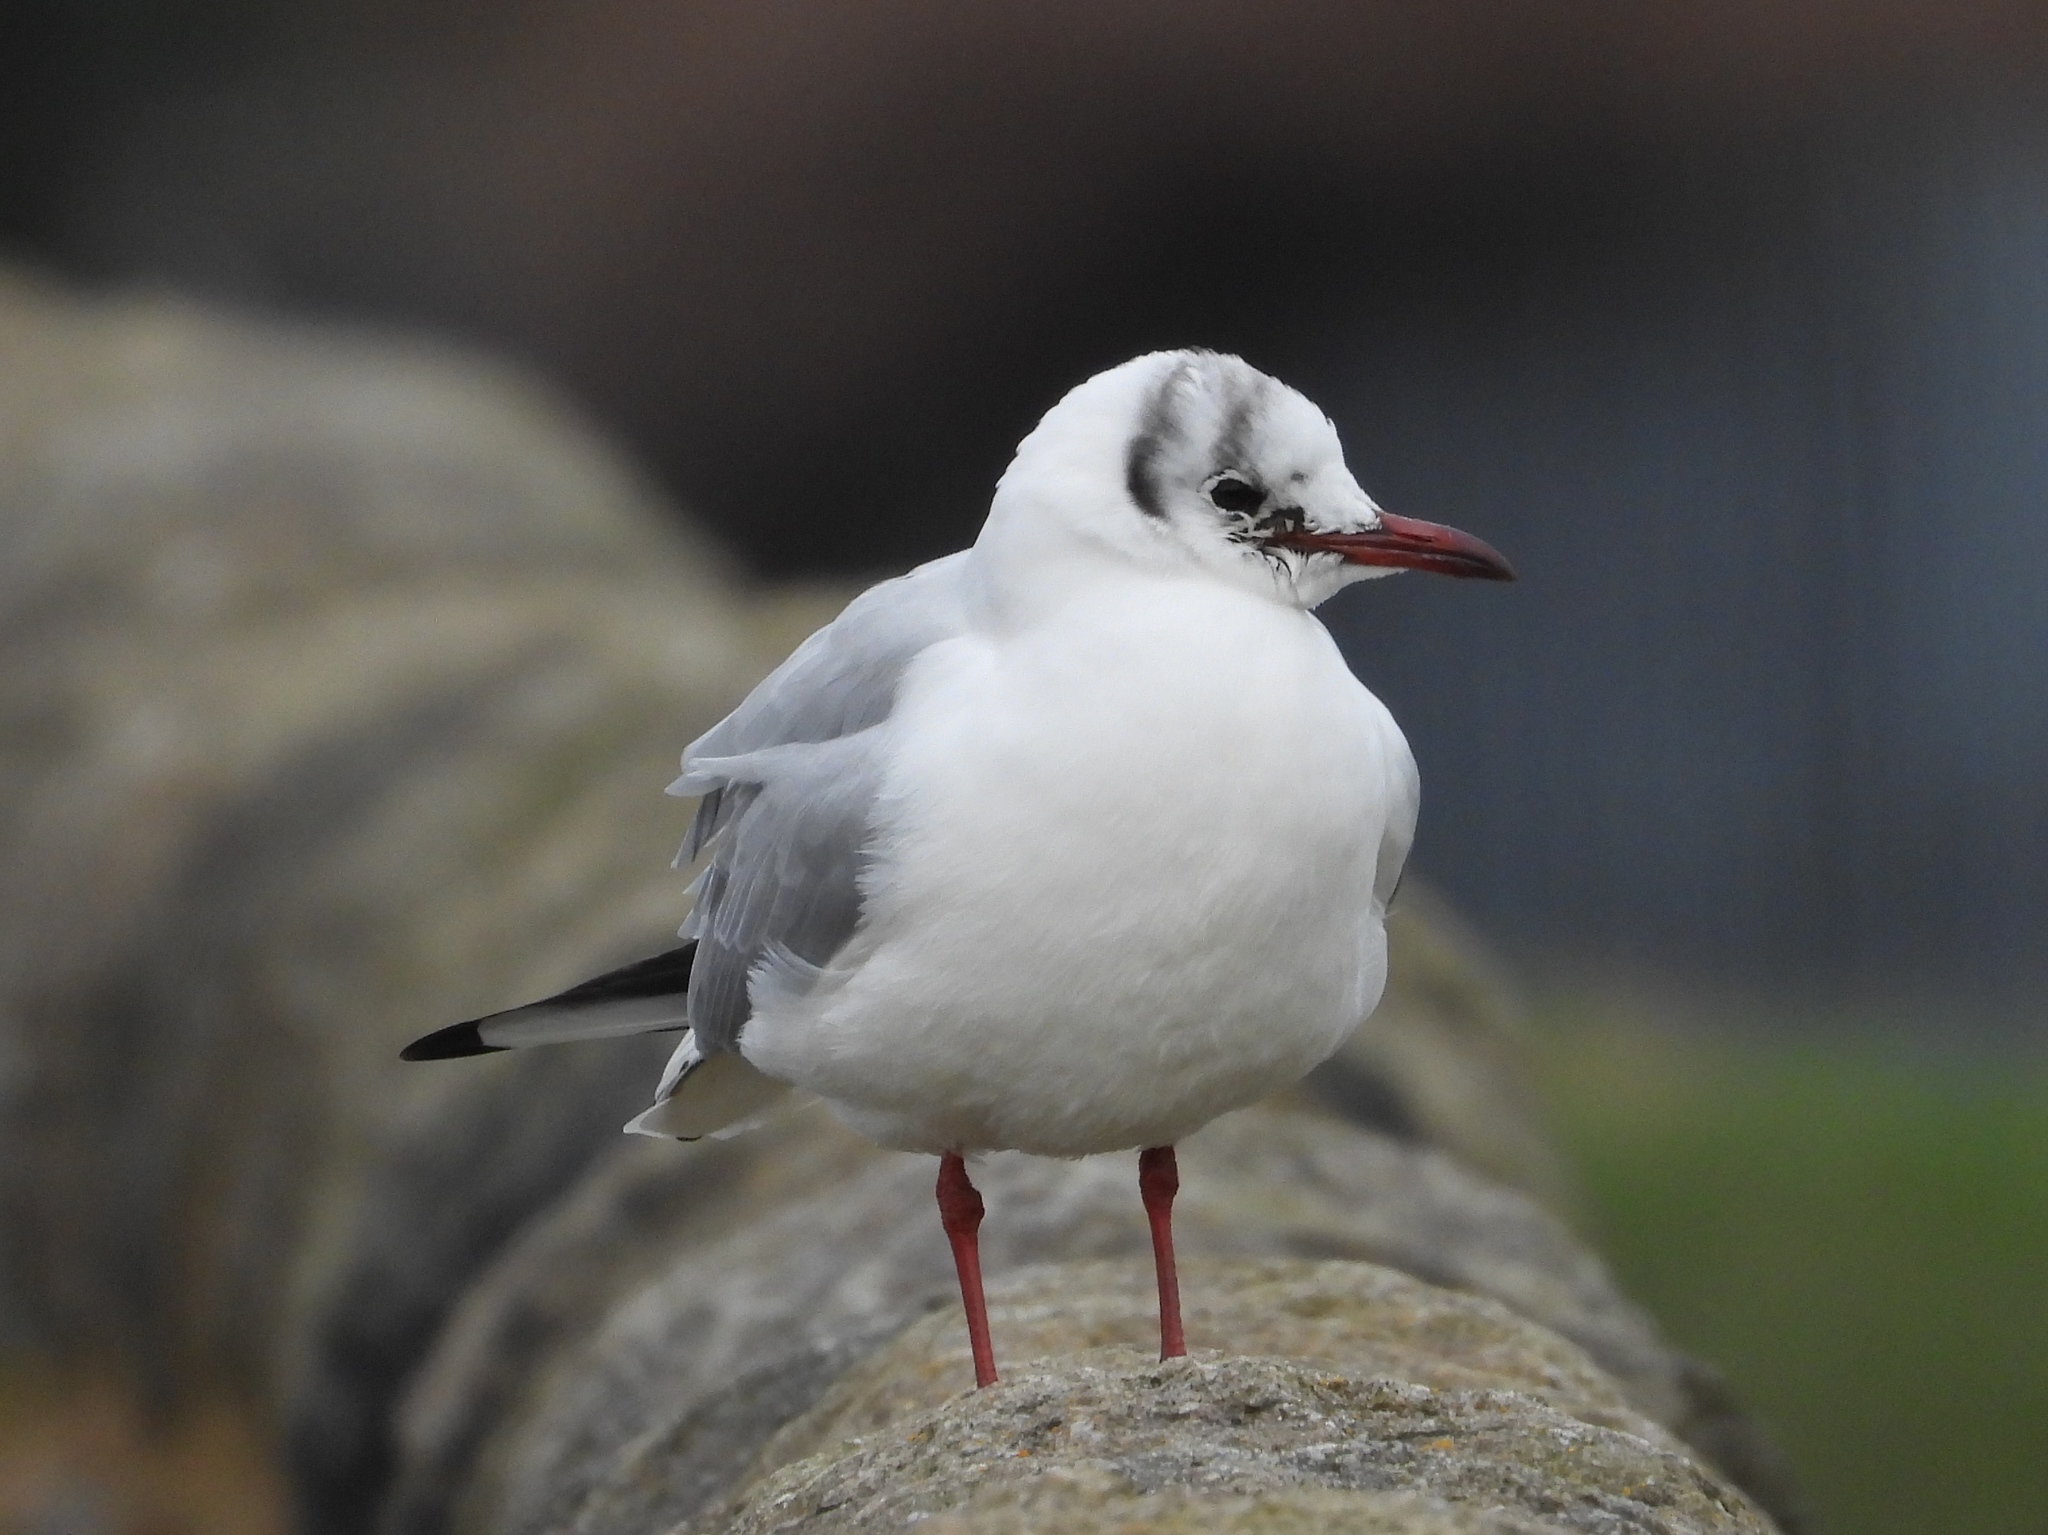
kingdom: Animalia
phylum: Chordata
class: Aves
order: Charadriiformes
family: Laridae
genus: Chroicocephalus
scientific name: Chroicocephalus ridibundus
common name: Black-headed gull
